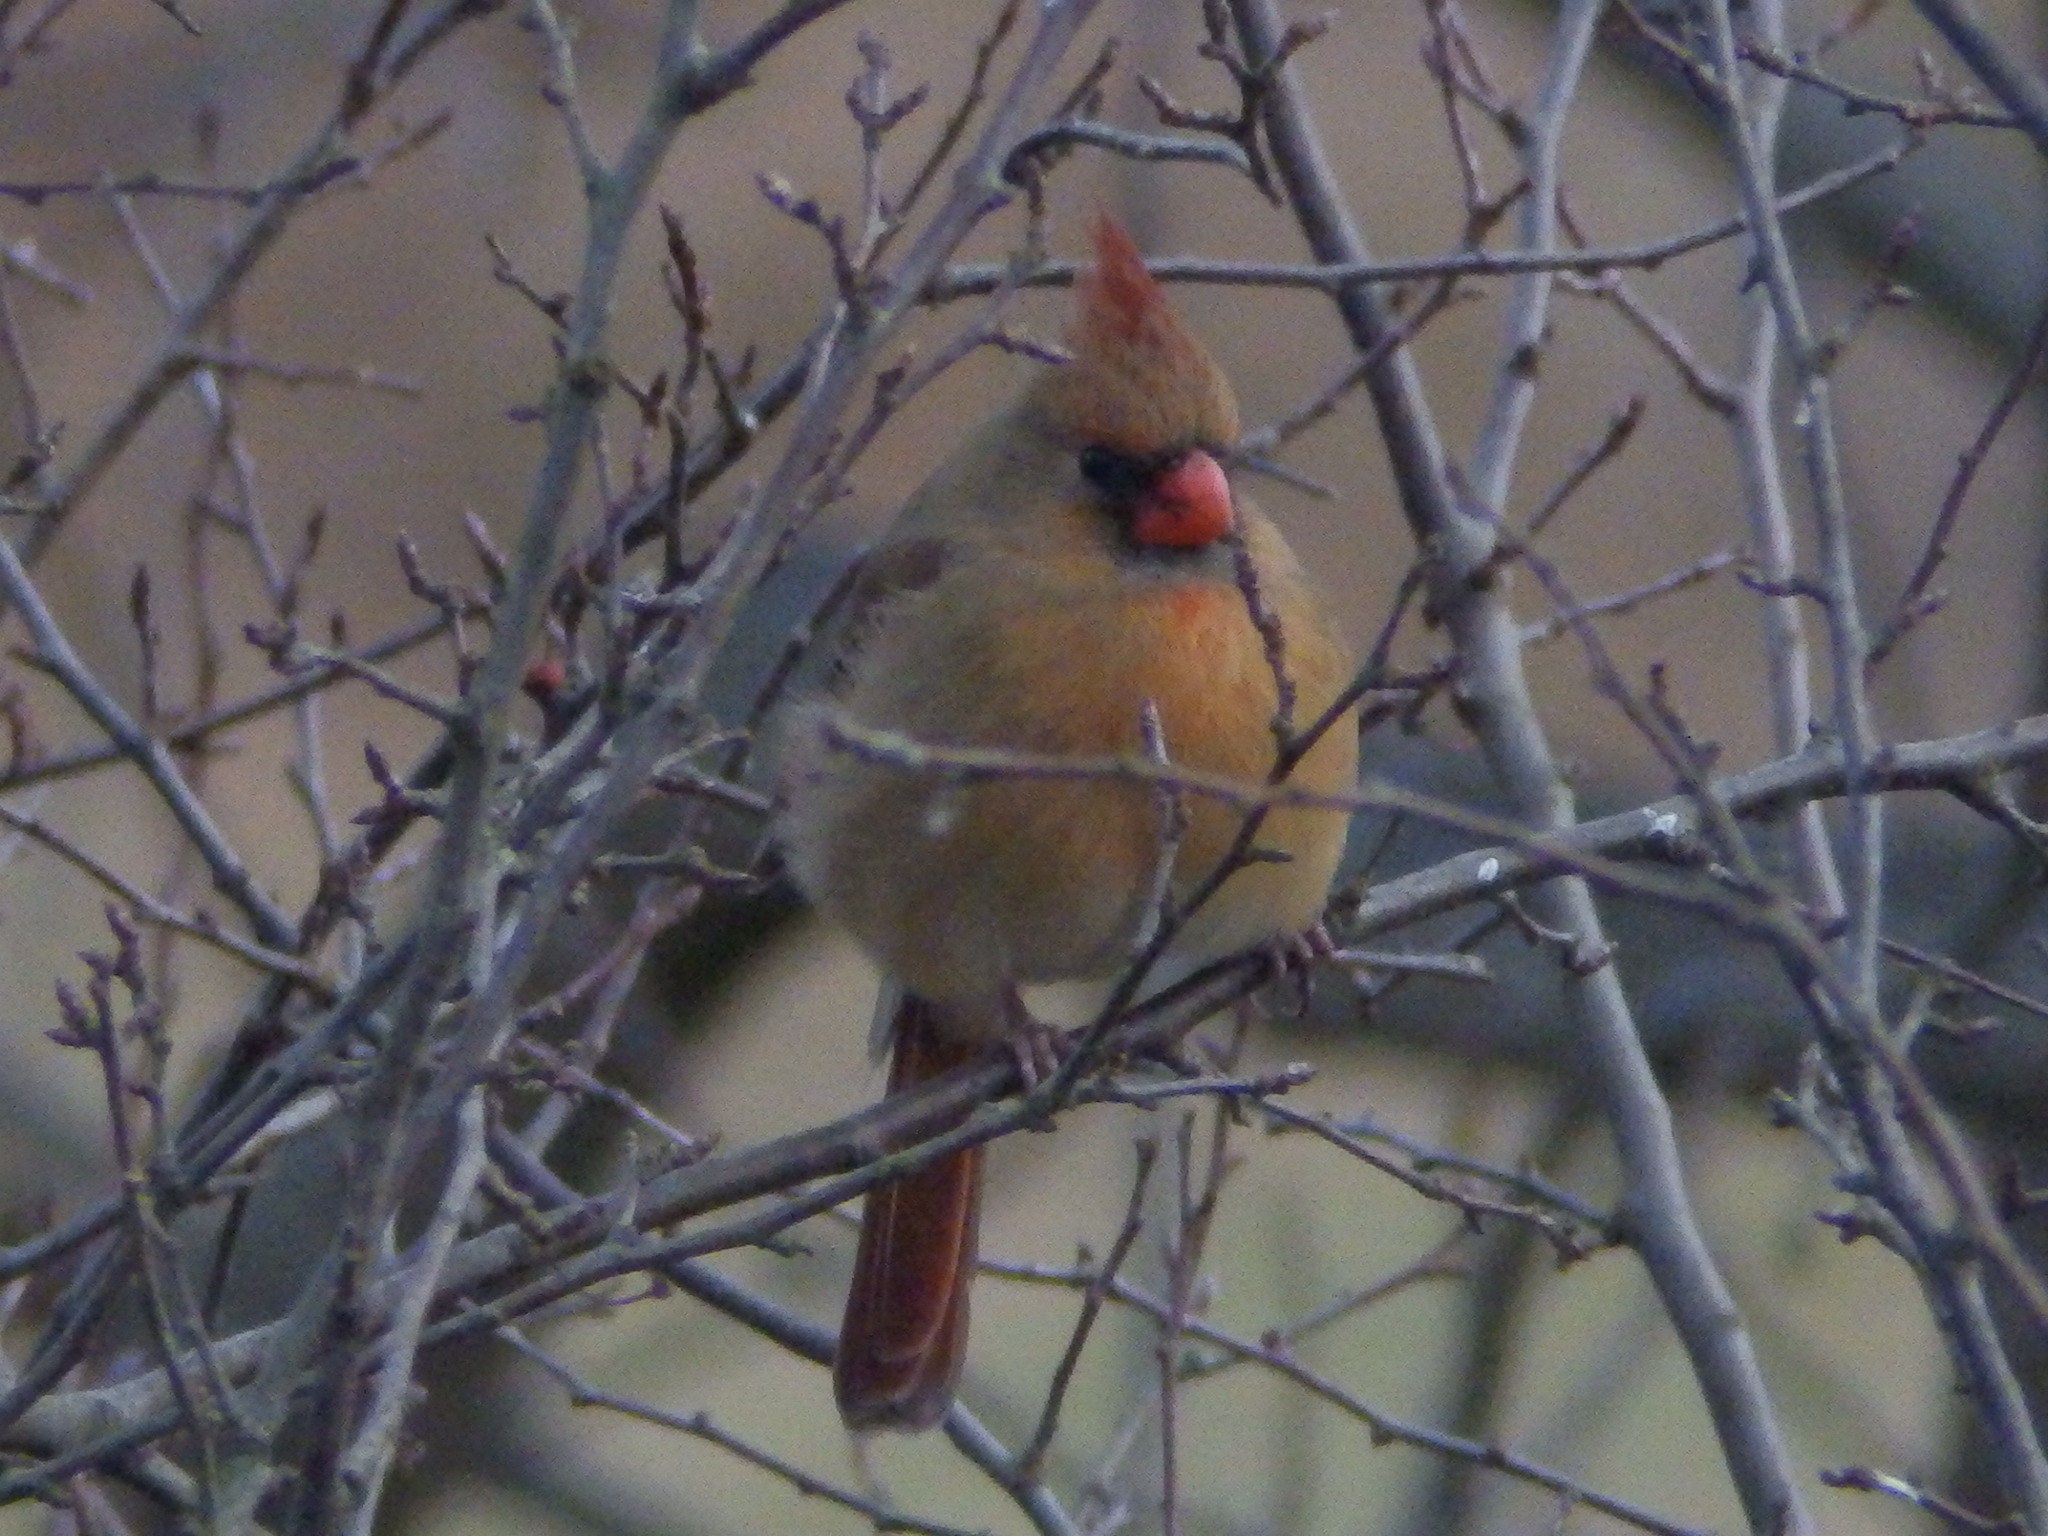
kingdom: Animalia
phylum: Chordata
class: Aves
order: Passeriformes
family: Cardinalidae
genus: Cardinalis
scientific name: Cardinalis cardinalis
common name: Northern cardinal
